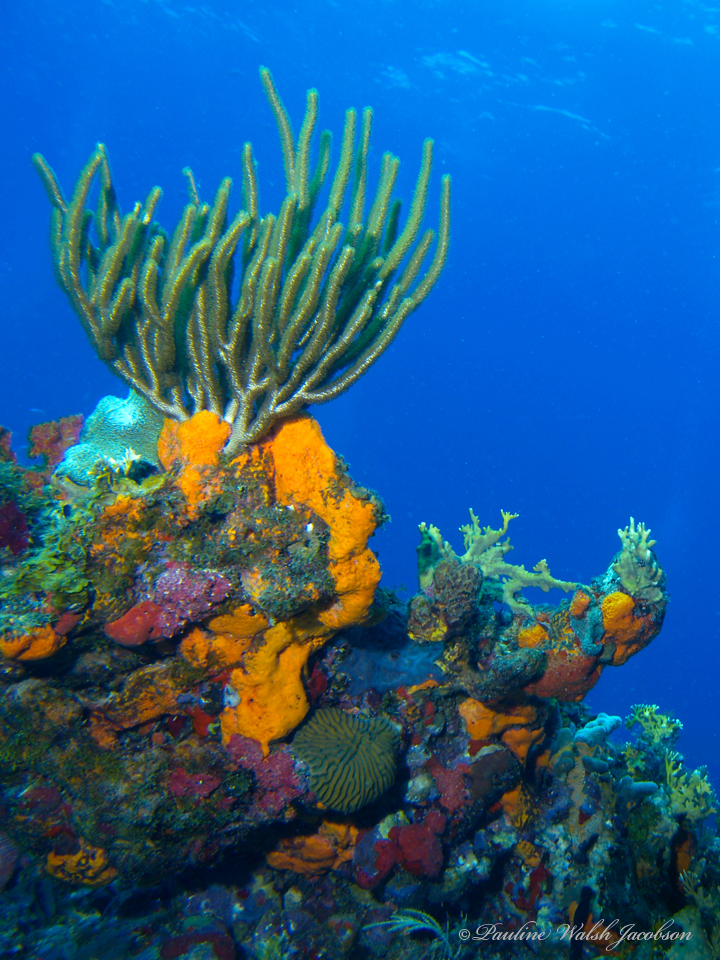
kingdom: Animalia
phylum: Porifera
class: Demospongiae
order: Agelasida
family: Agelasidae
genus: Agelas
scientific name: Agelas clathrodes
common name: Orange elephant ear sponge
